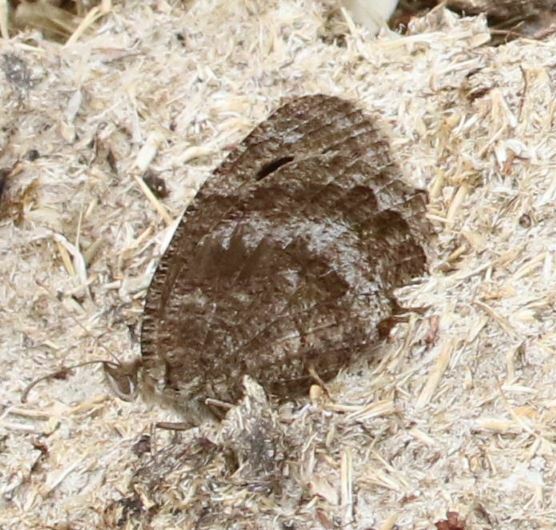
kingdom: Animalia
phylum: Arthropoda
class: Insecta
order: Lepidoptera
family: Nymphalidae
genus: Satyrus
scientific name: Satyrus actaea
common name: Black satyr
